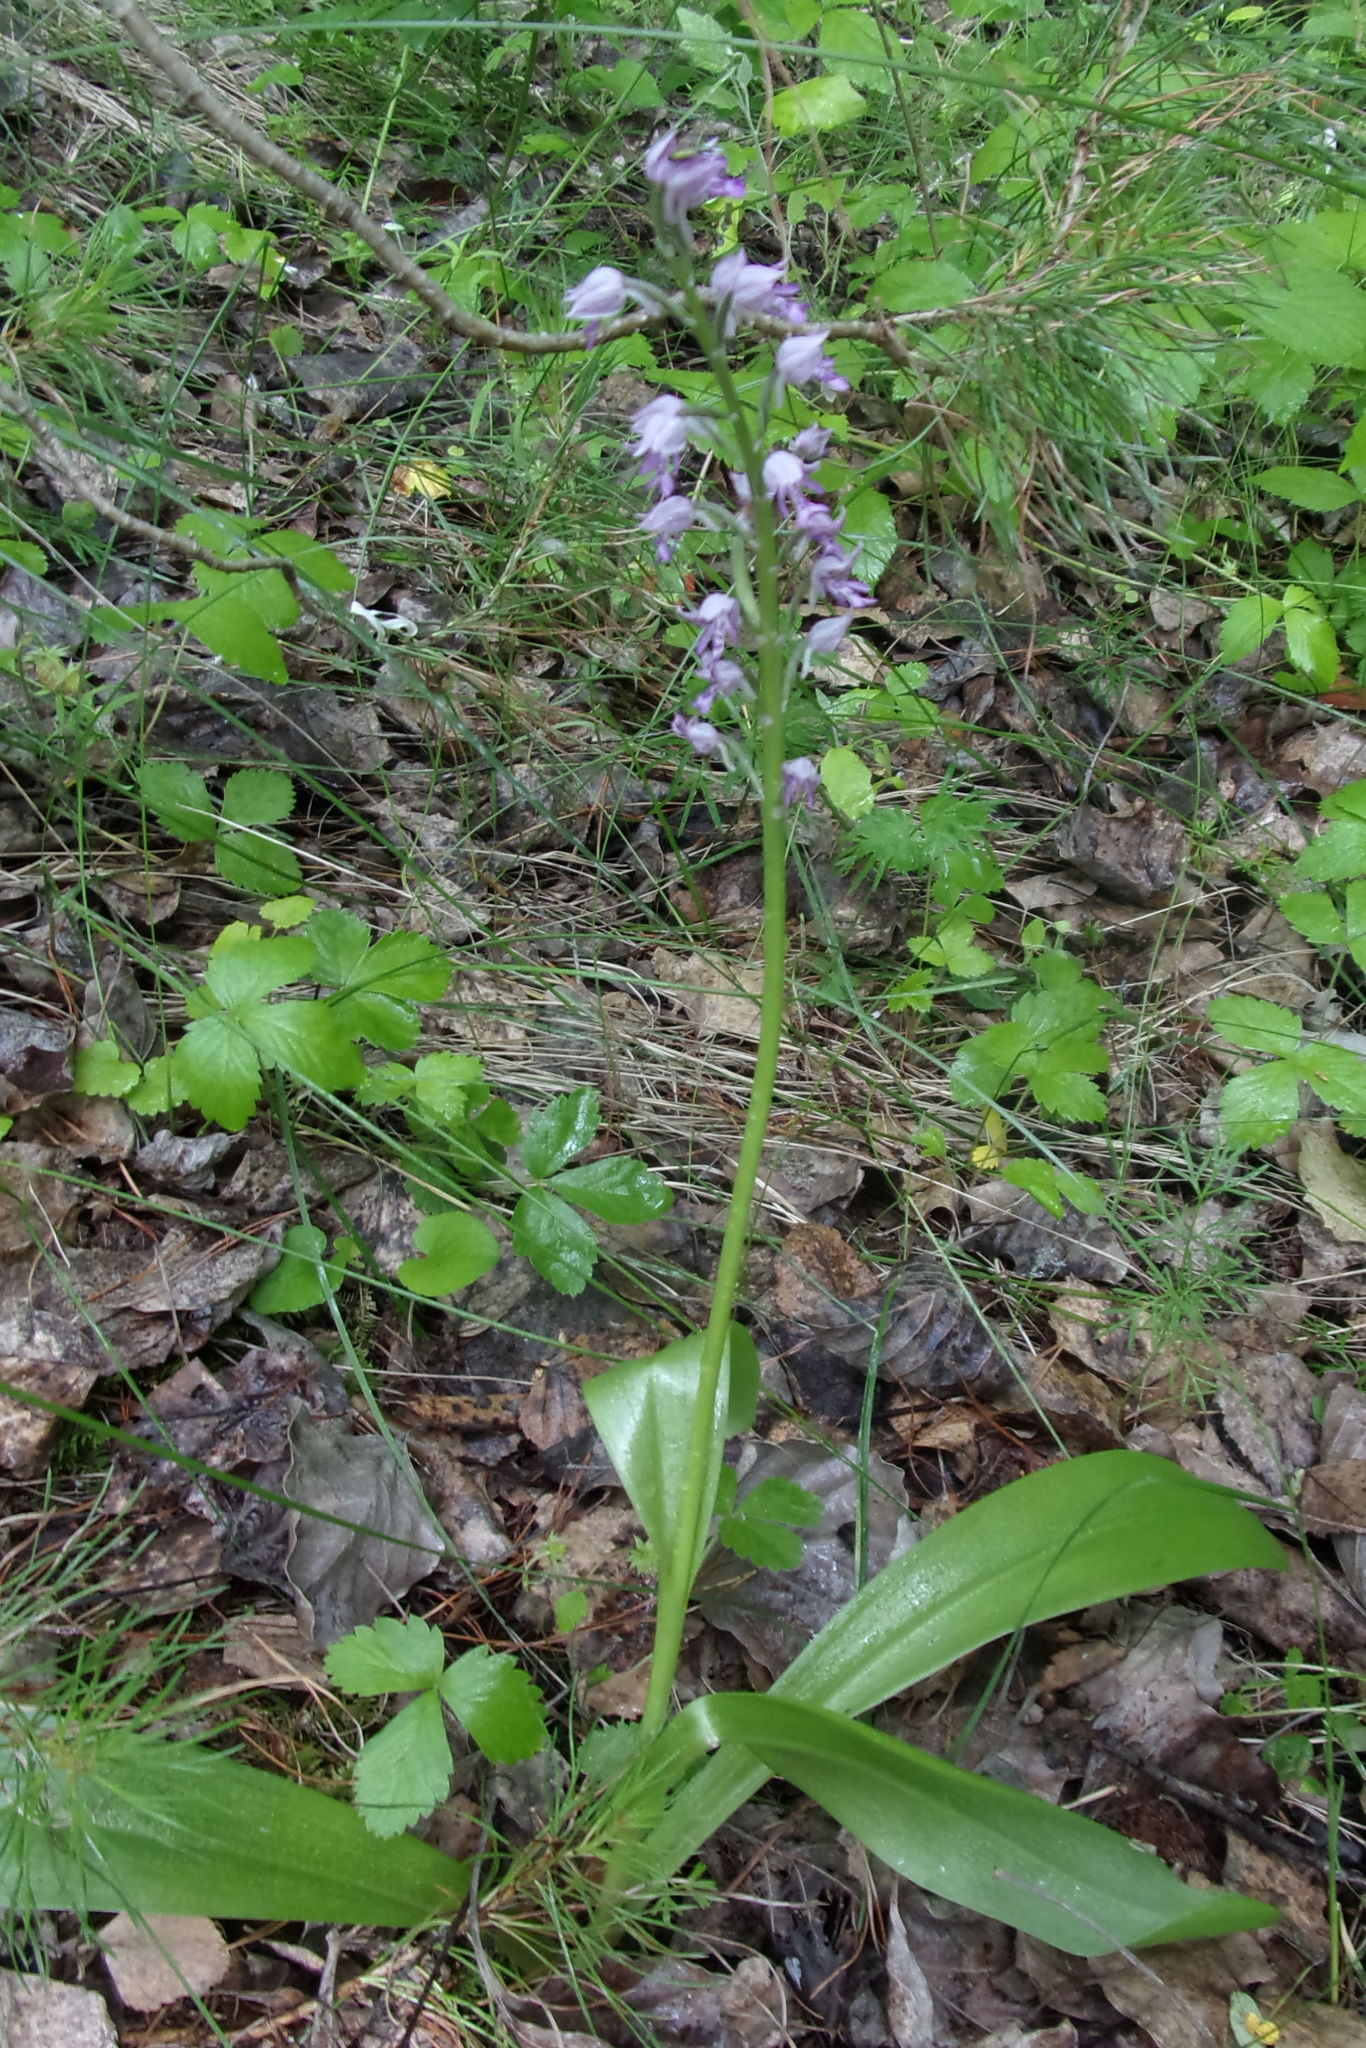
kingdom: Plantae
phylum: Tracheophyta
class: Liliopsida
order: Asparagales
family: Orchidaceae
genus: Orchis
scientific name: Orchis militaris
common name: Military orchid
